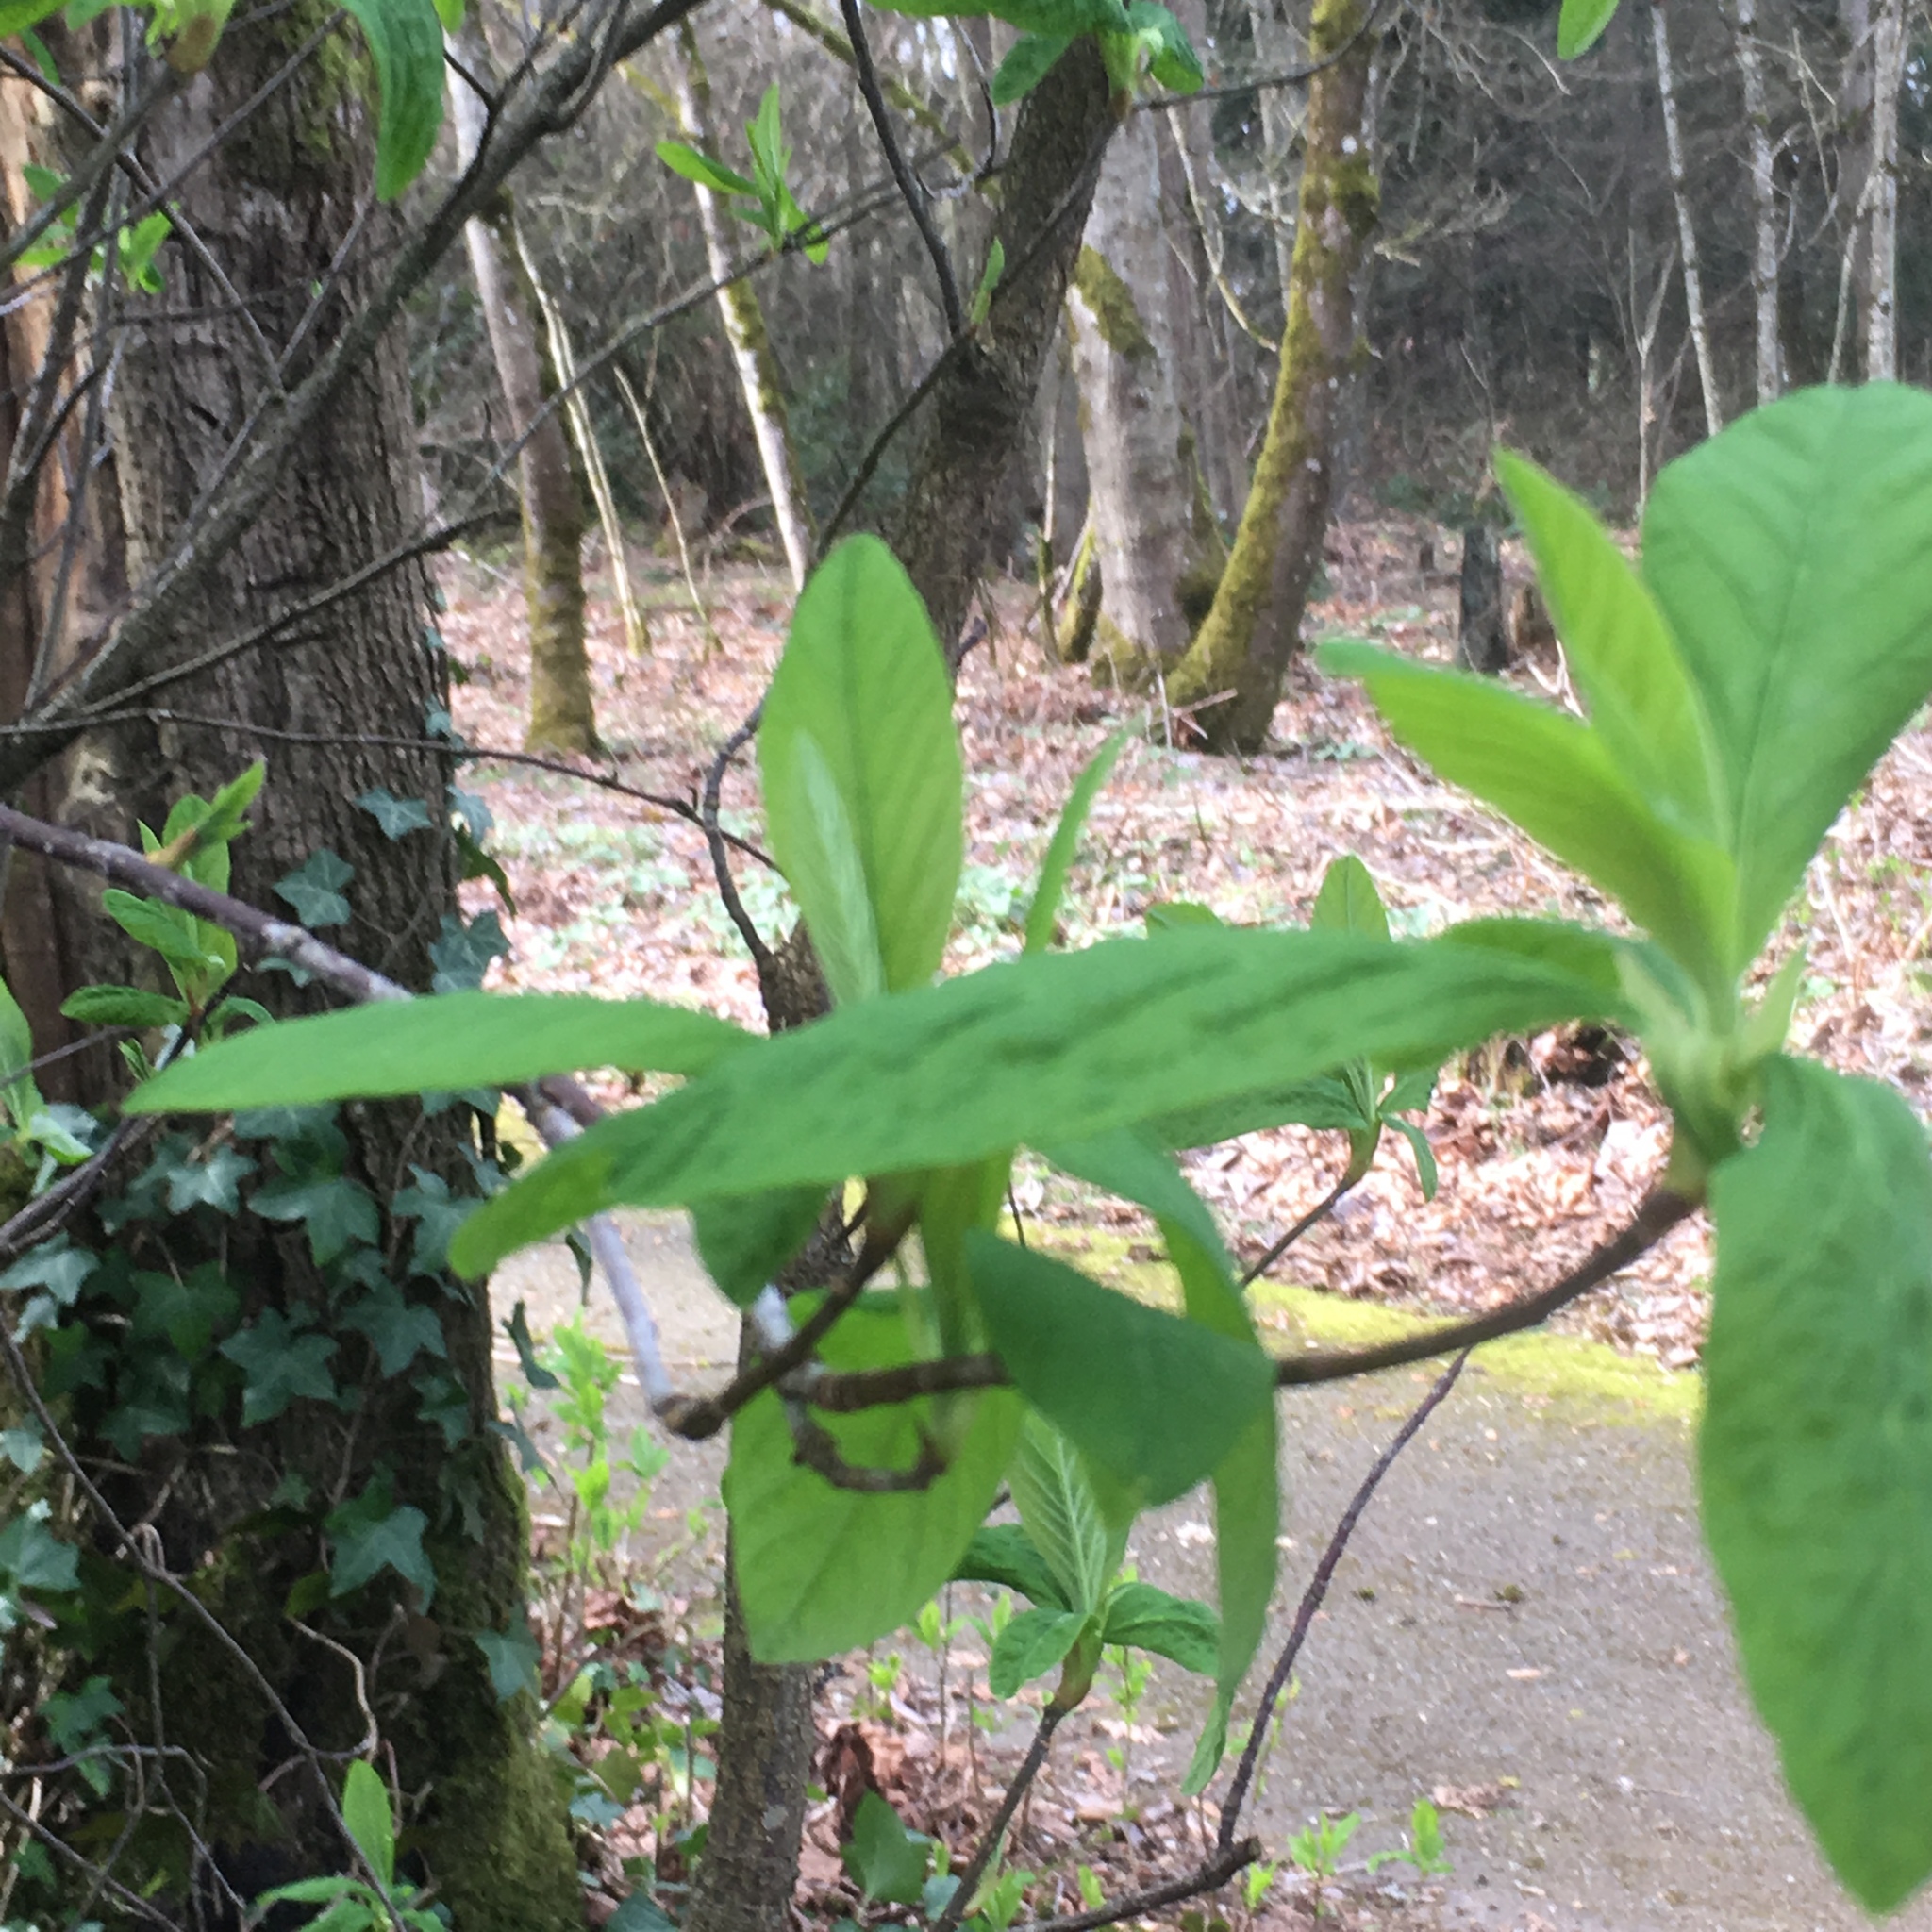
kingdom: Plantae
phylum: Tracheophyta
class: Magnoliopsida
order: Rosales
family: Rosaceae
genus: Oemleria
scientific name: Oemleria cerasiformis
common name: Osoberry
